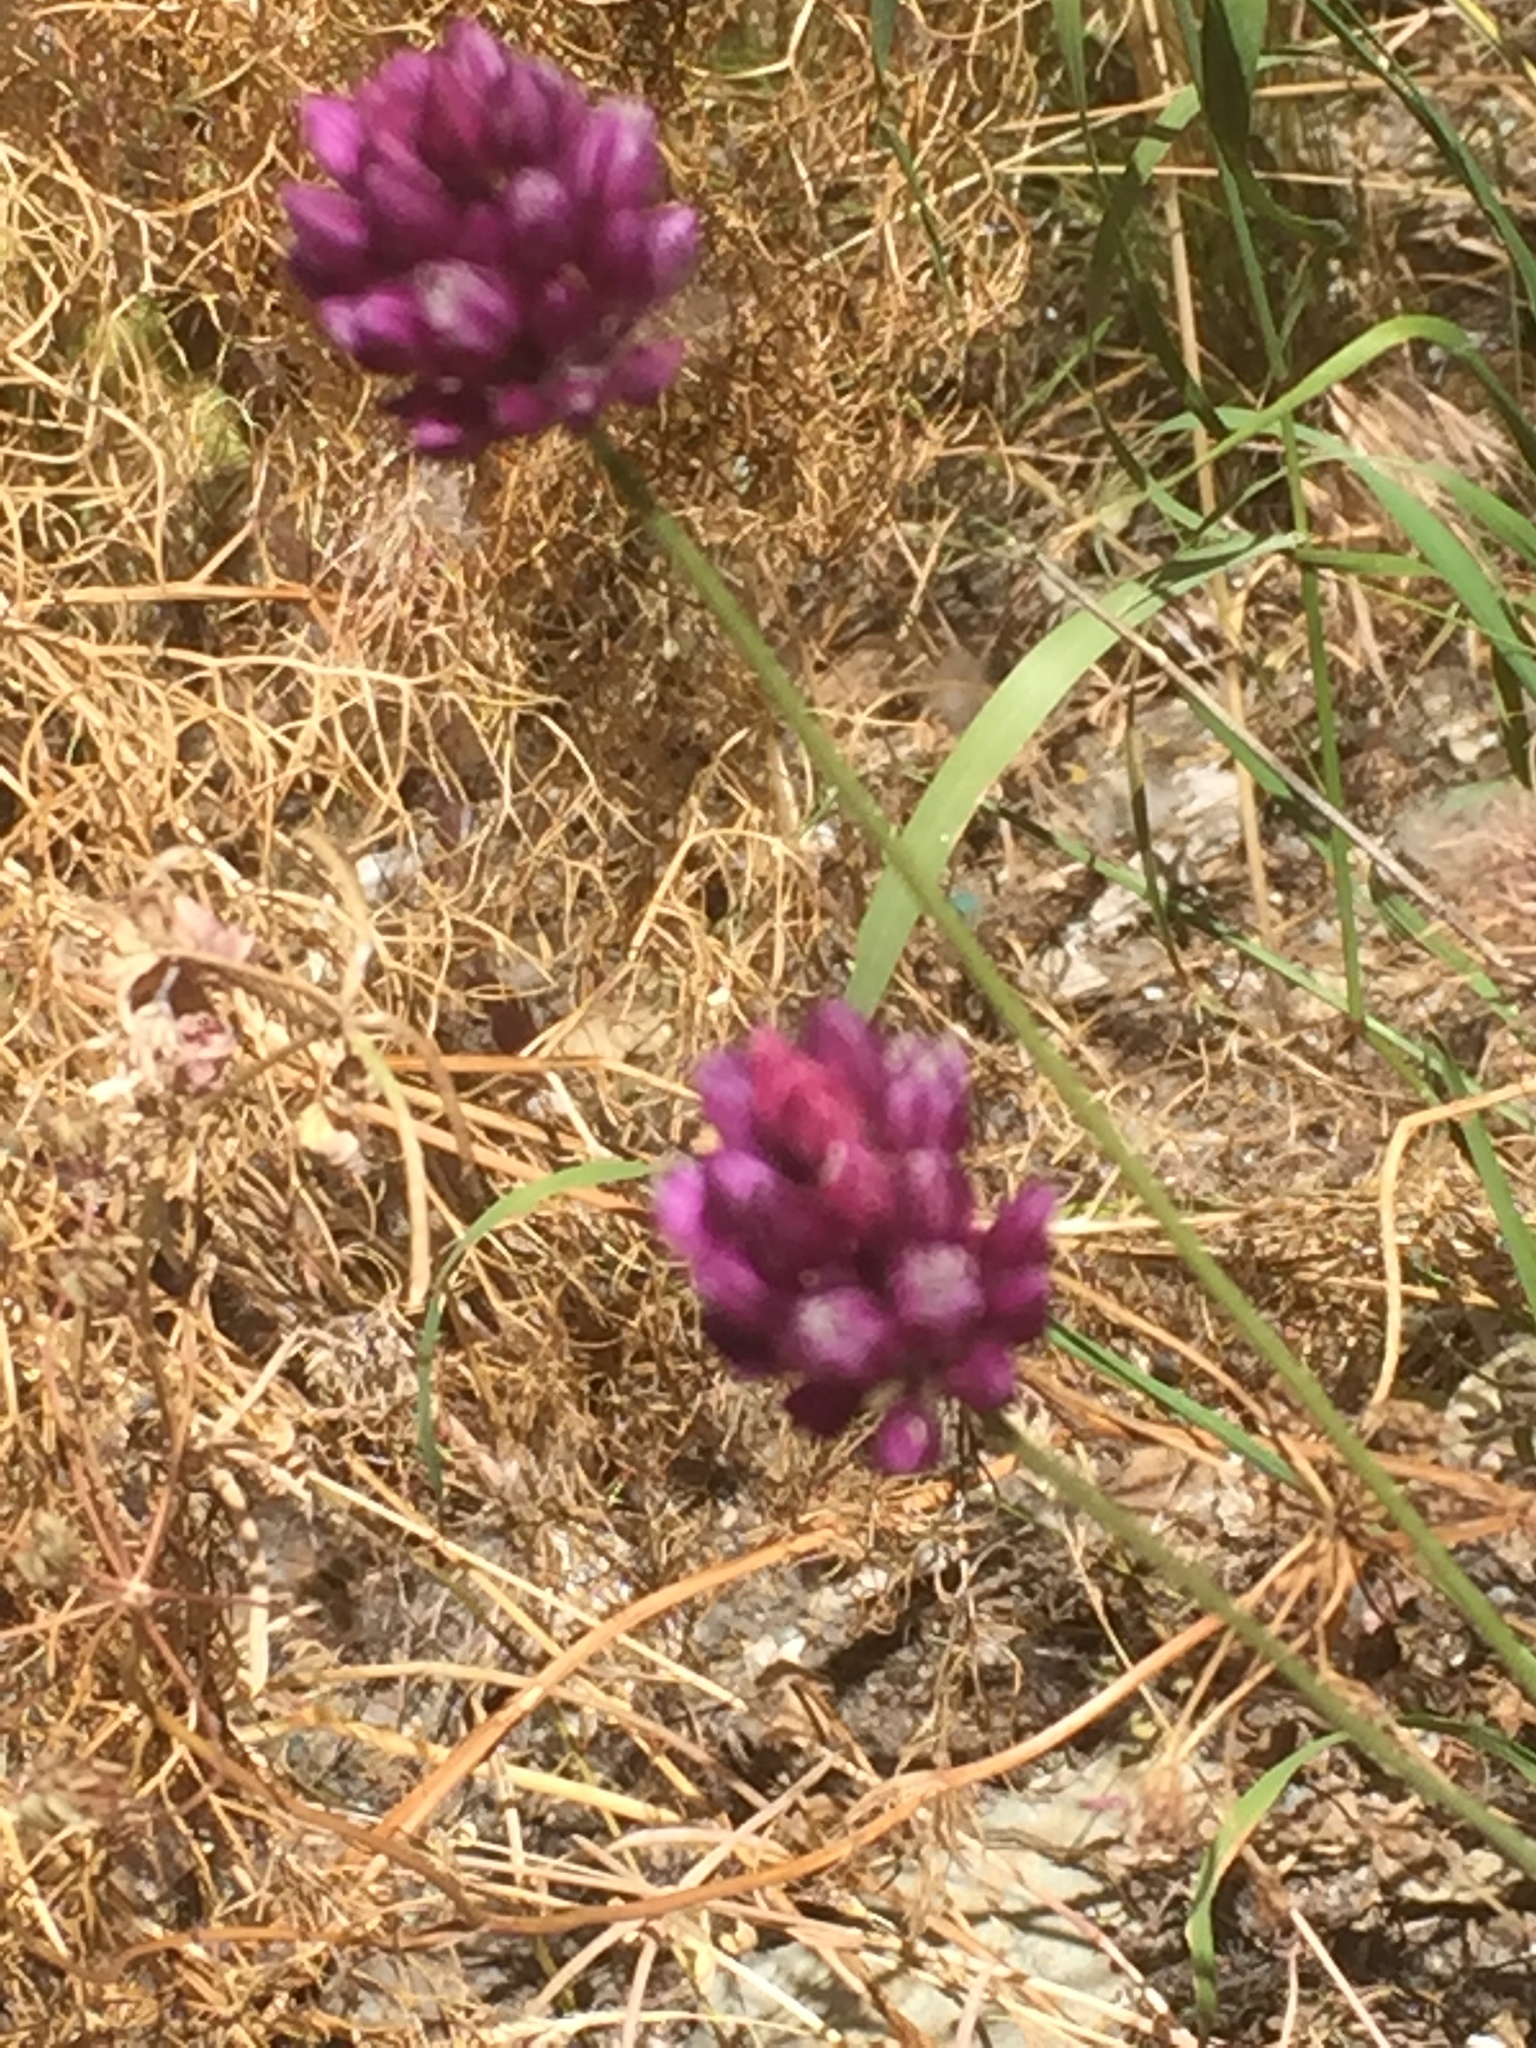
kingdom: Plantae
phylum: Tracheophyta
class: Liliopsida
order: Asparagales
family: Amaryllidaceae
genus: Allium
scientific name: Allium rotundum
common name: Sand leek
